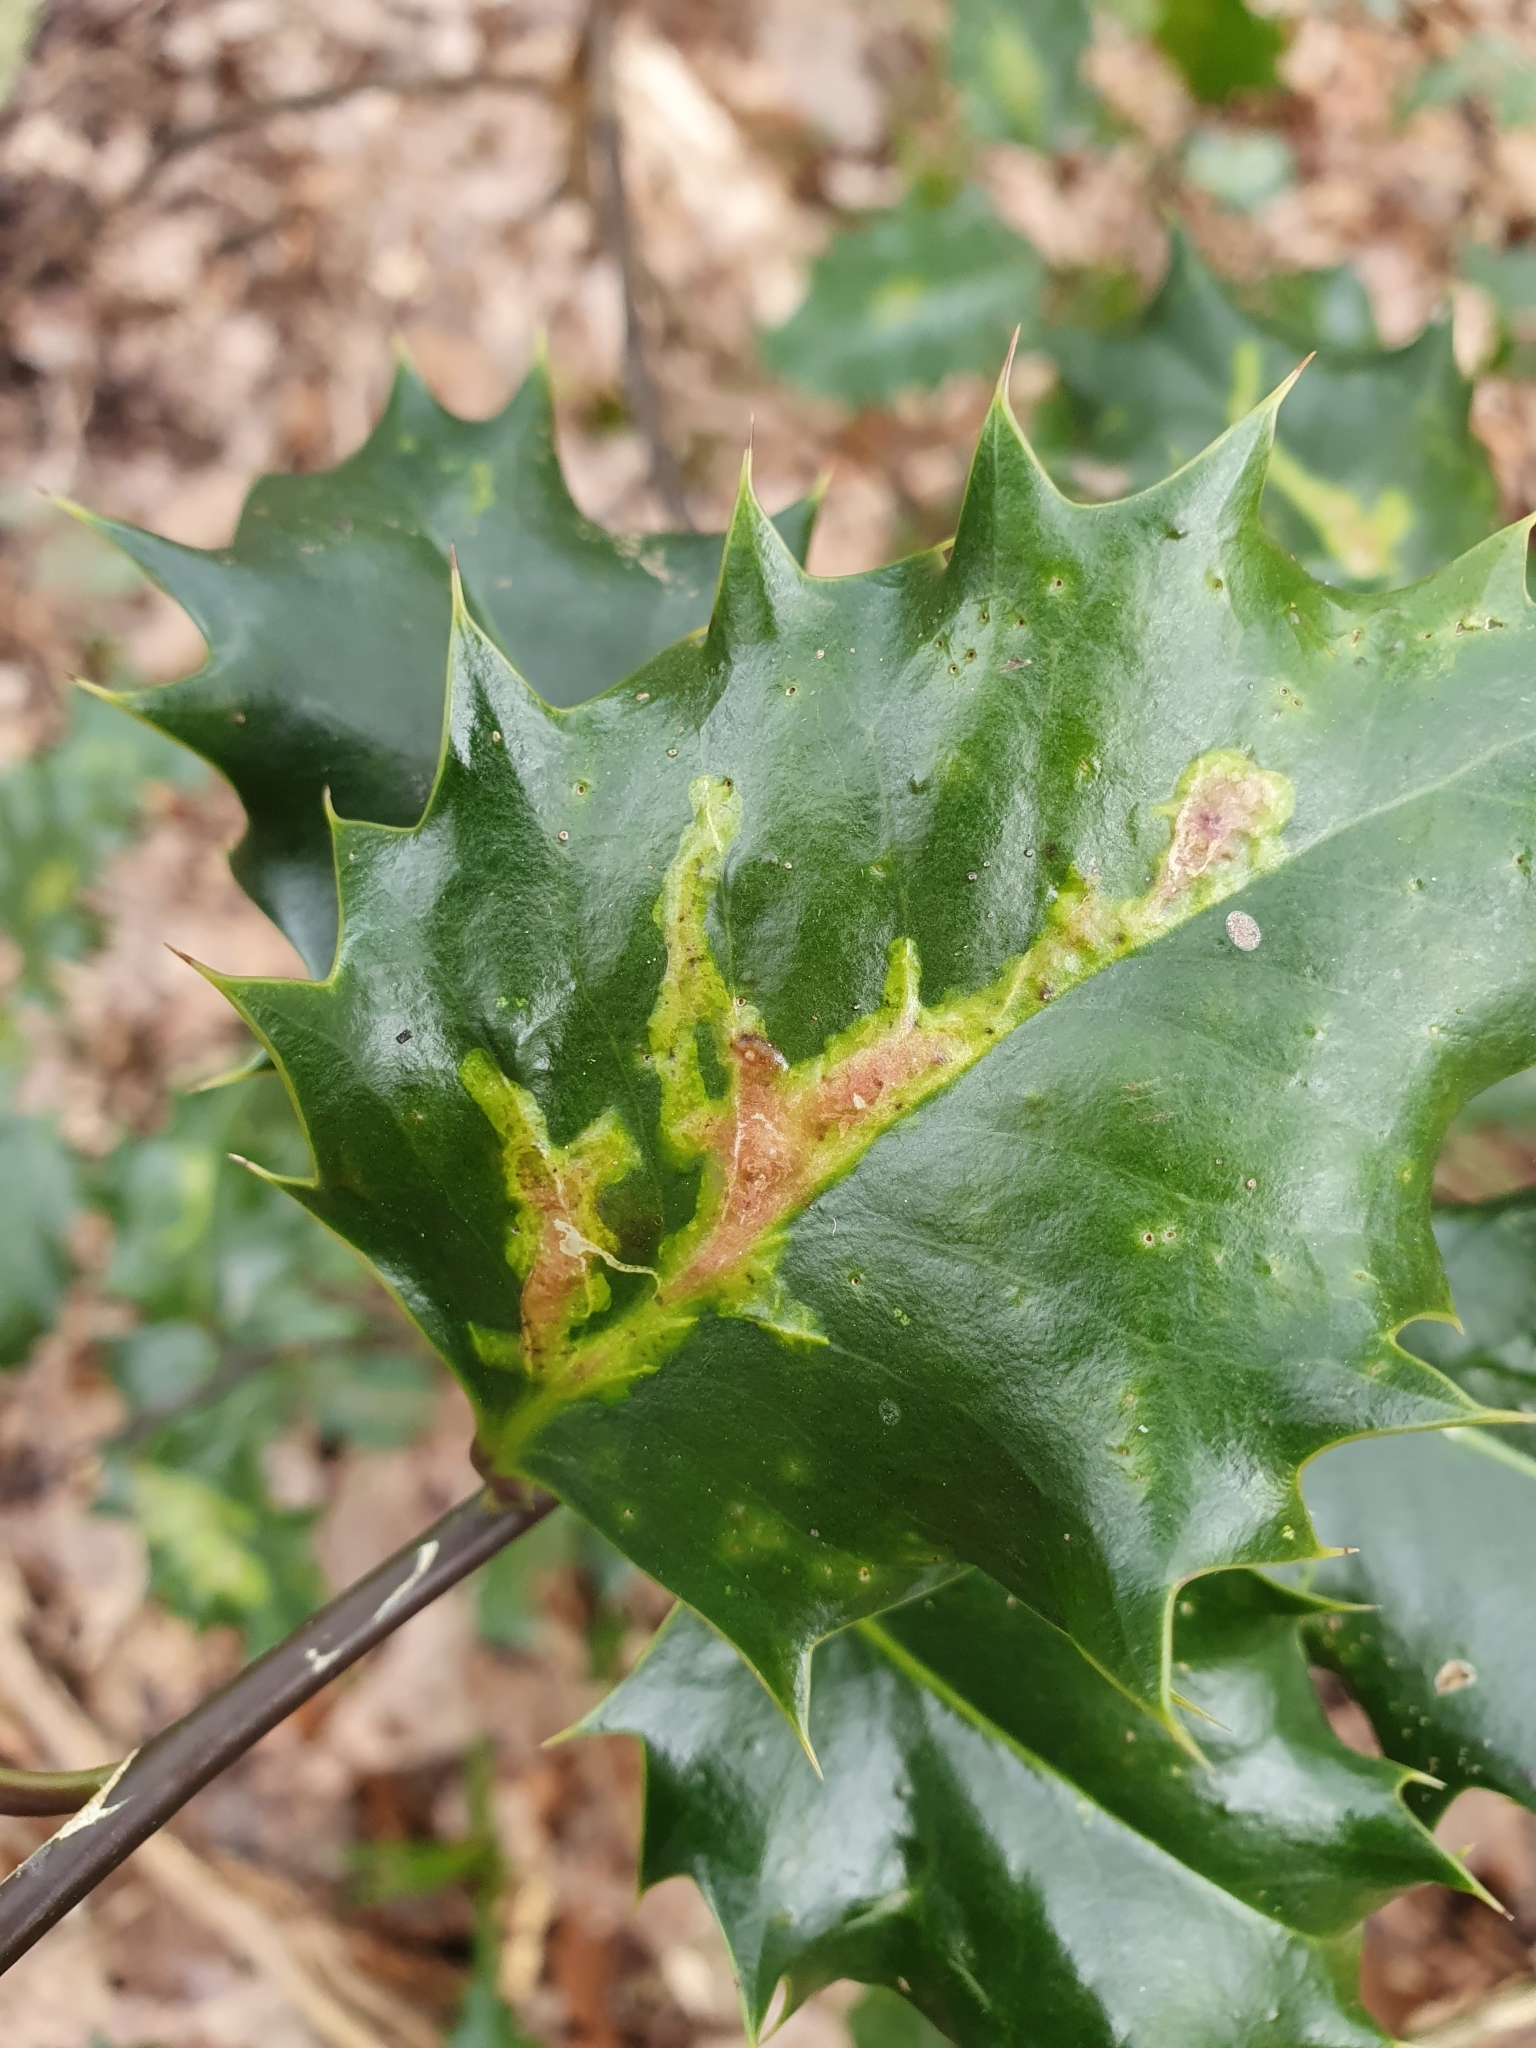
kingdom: Animalia
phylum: Arthropoda
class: Insecta
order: Diptera
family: Agromyzidae
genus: Phytomyza
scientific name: Phytomyza ilicis
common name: Holly leafminer
